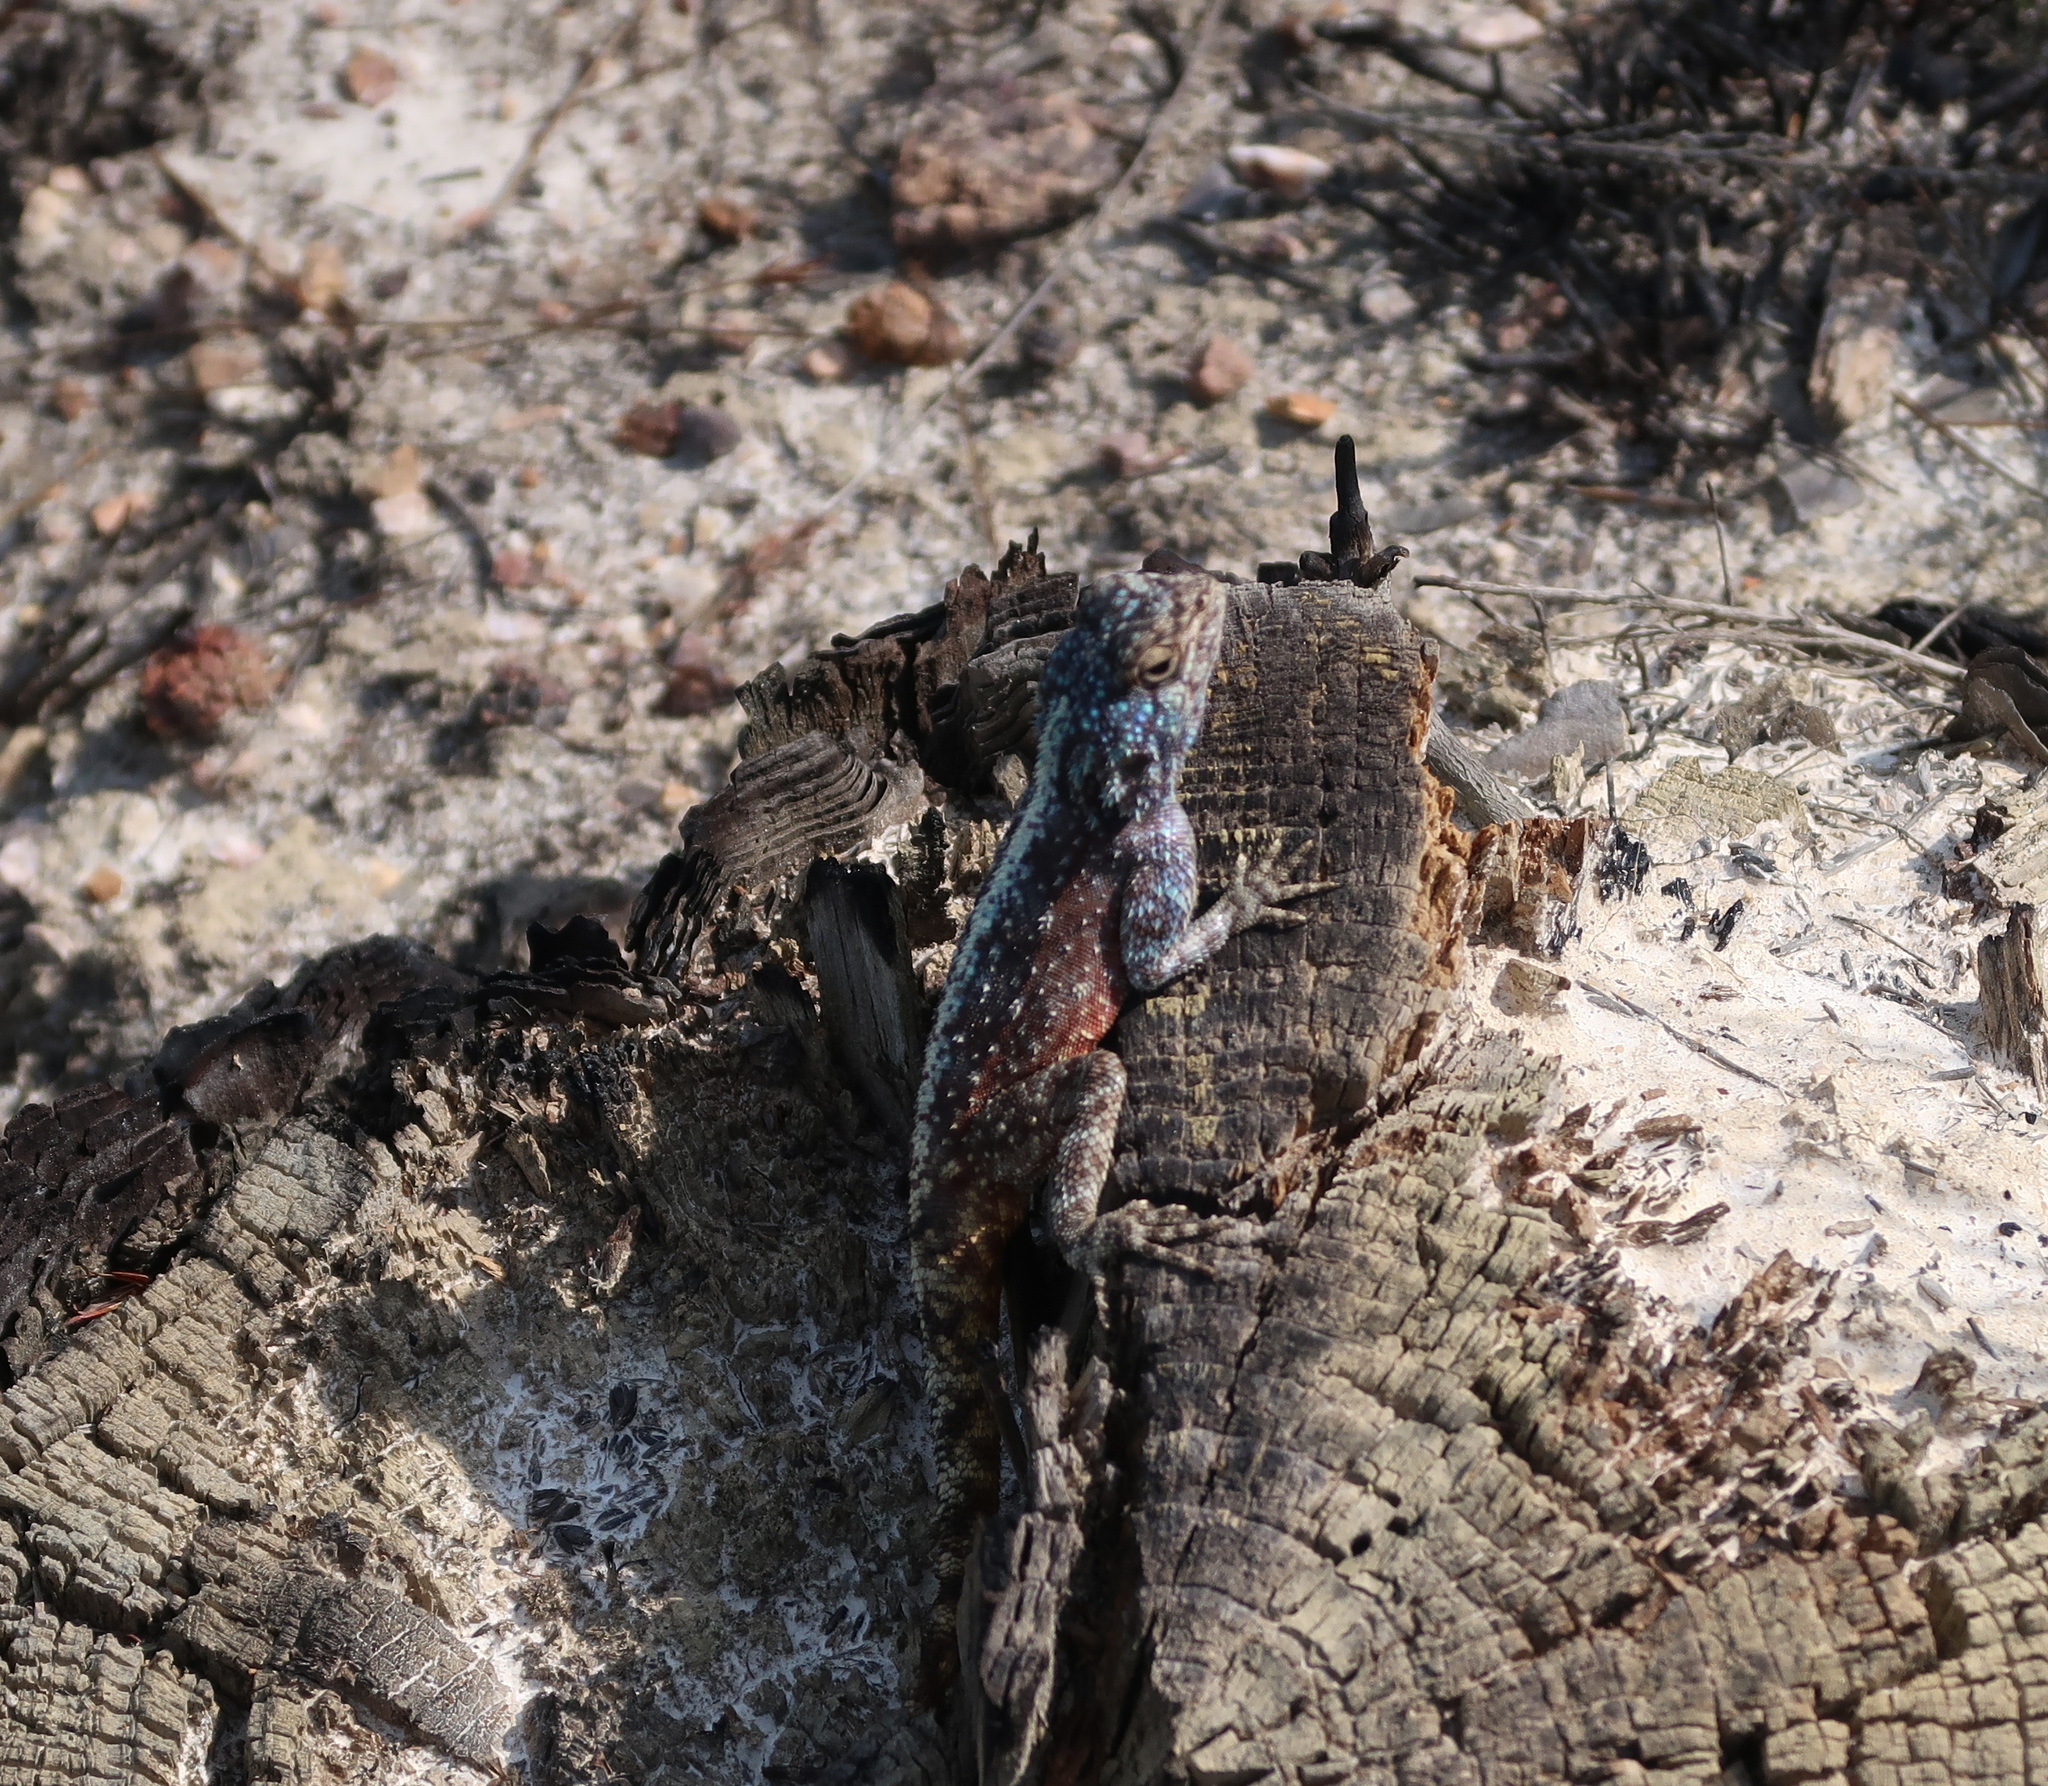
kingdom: Animalia
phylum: Chordata
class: Squamata
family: Agamidae
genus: Agama
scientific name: Agama atra
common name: Southern african rock agama
